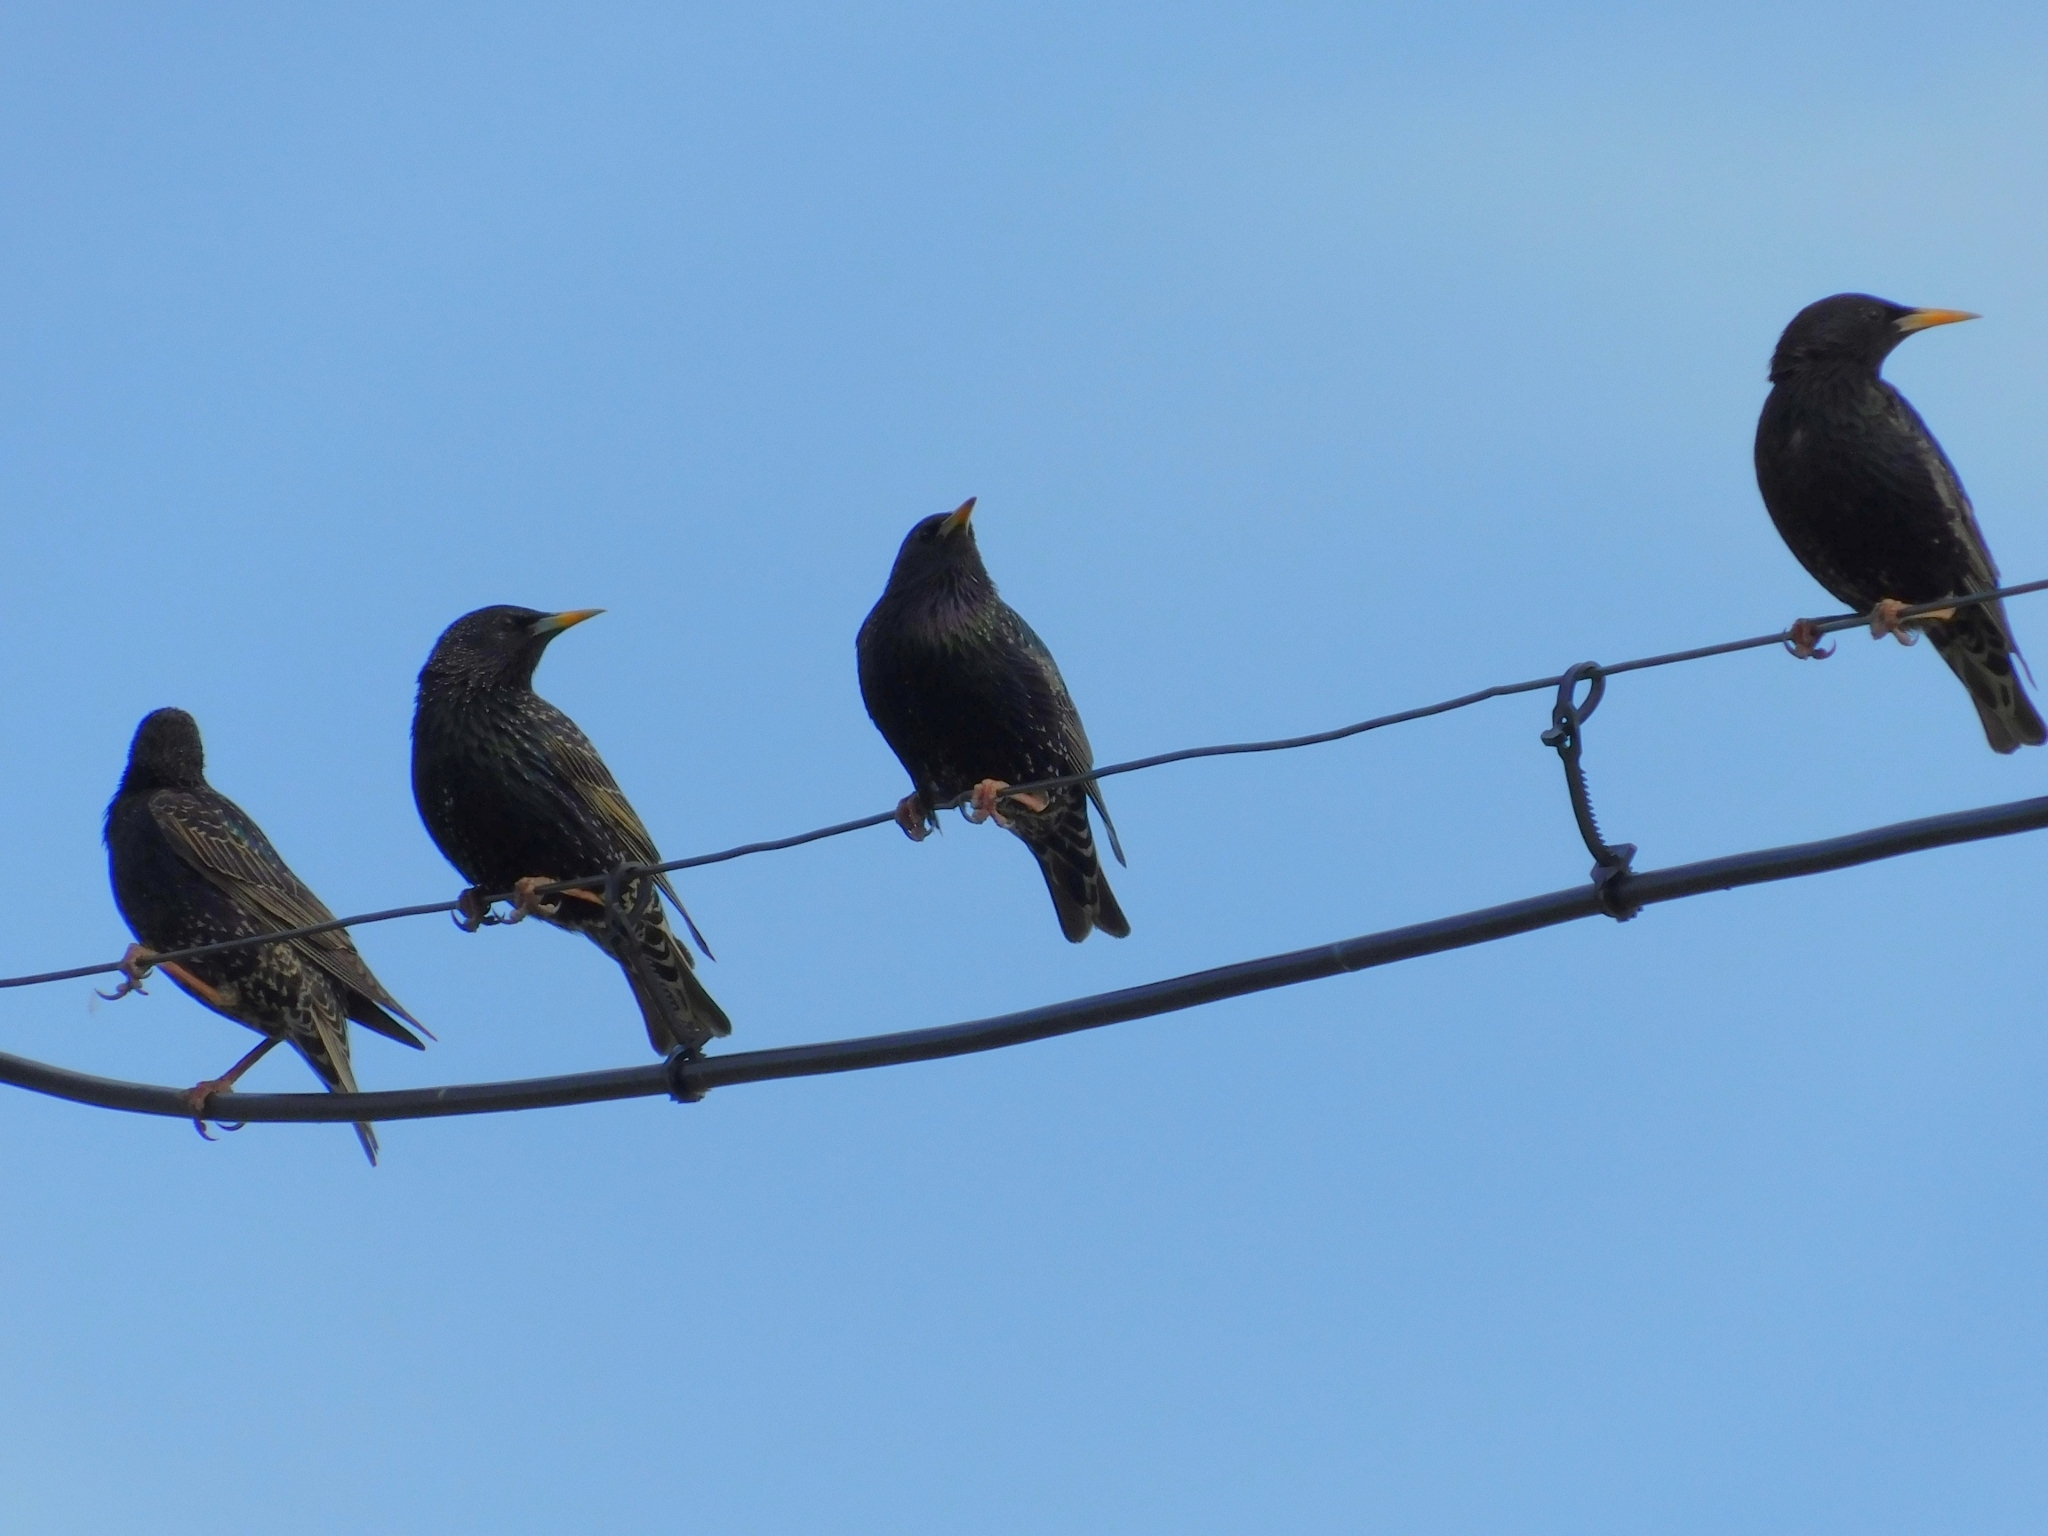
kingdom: Animalia
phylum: Chordata
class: Aves
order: Passeriformes
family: Sturnidae
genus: Sturnus
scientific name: Sturnus vulgaris
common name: Common starling
